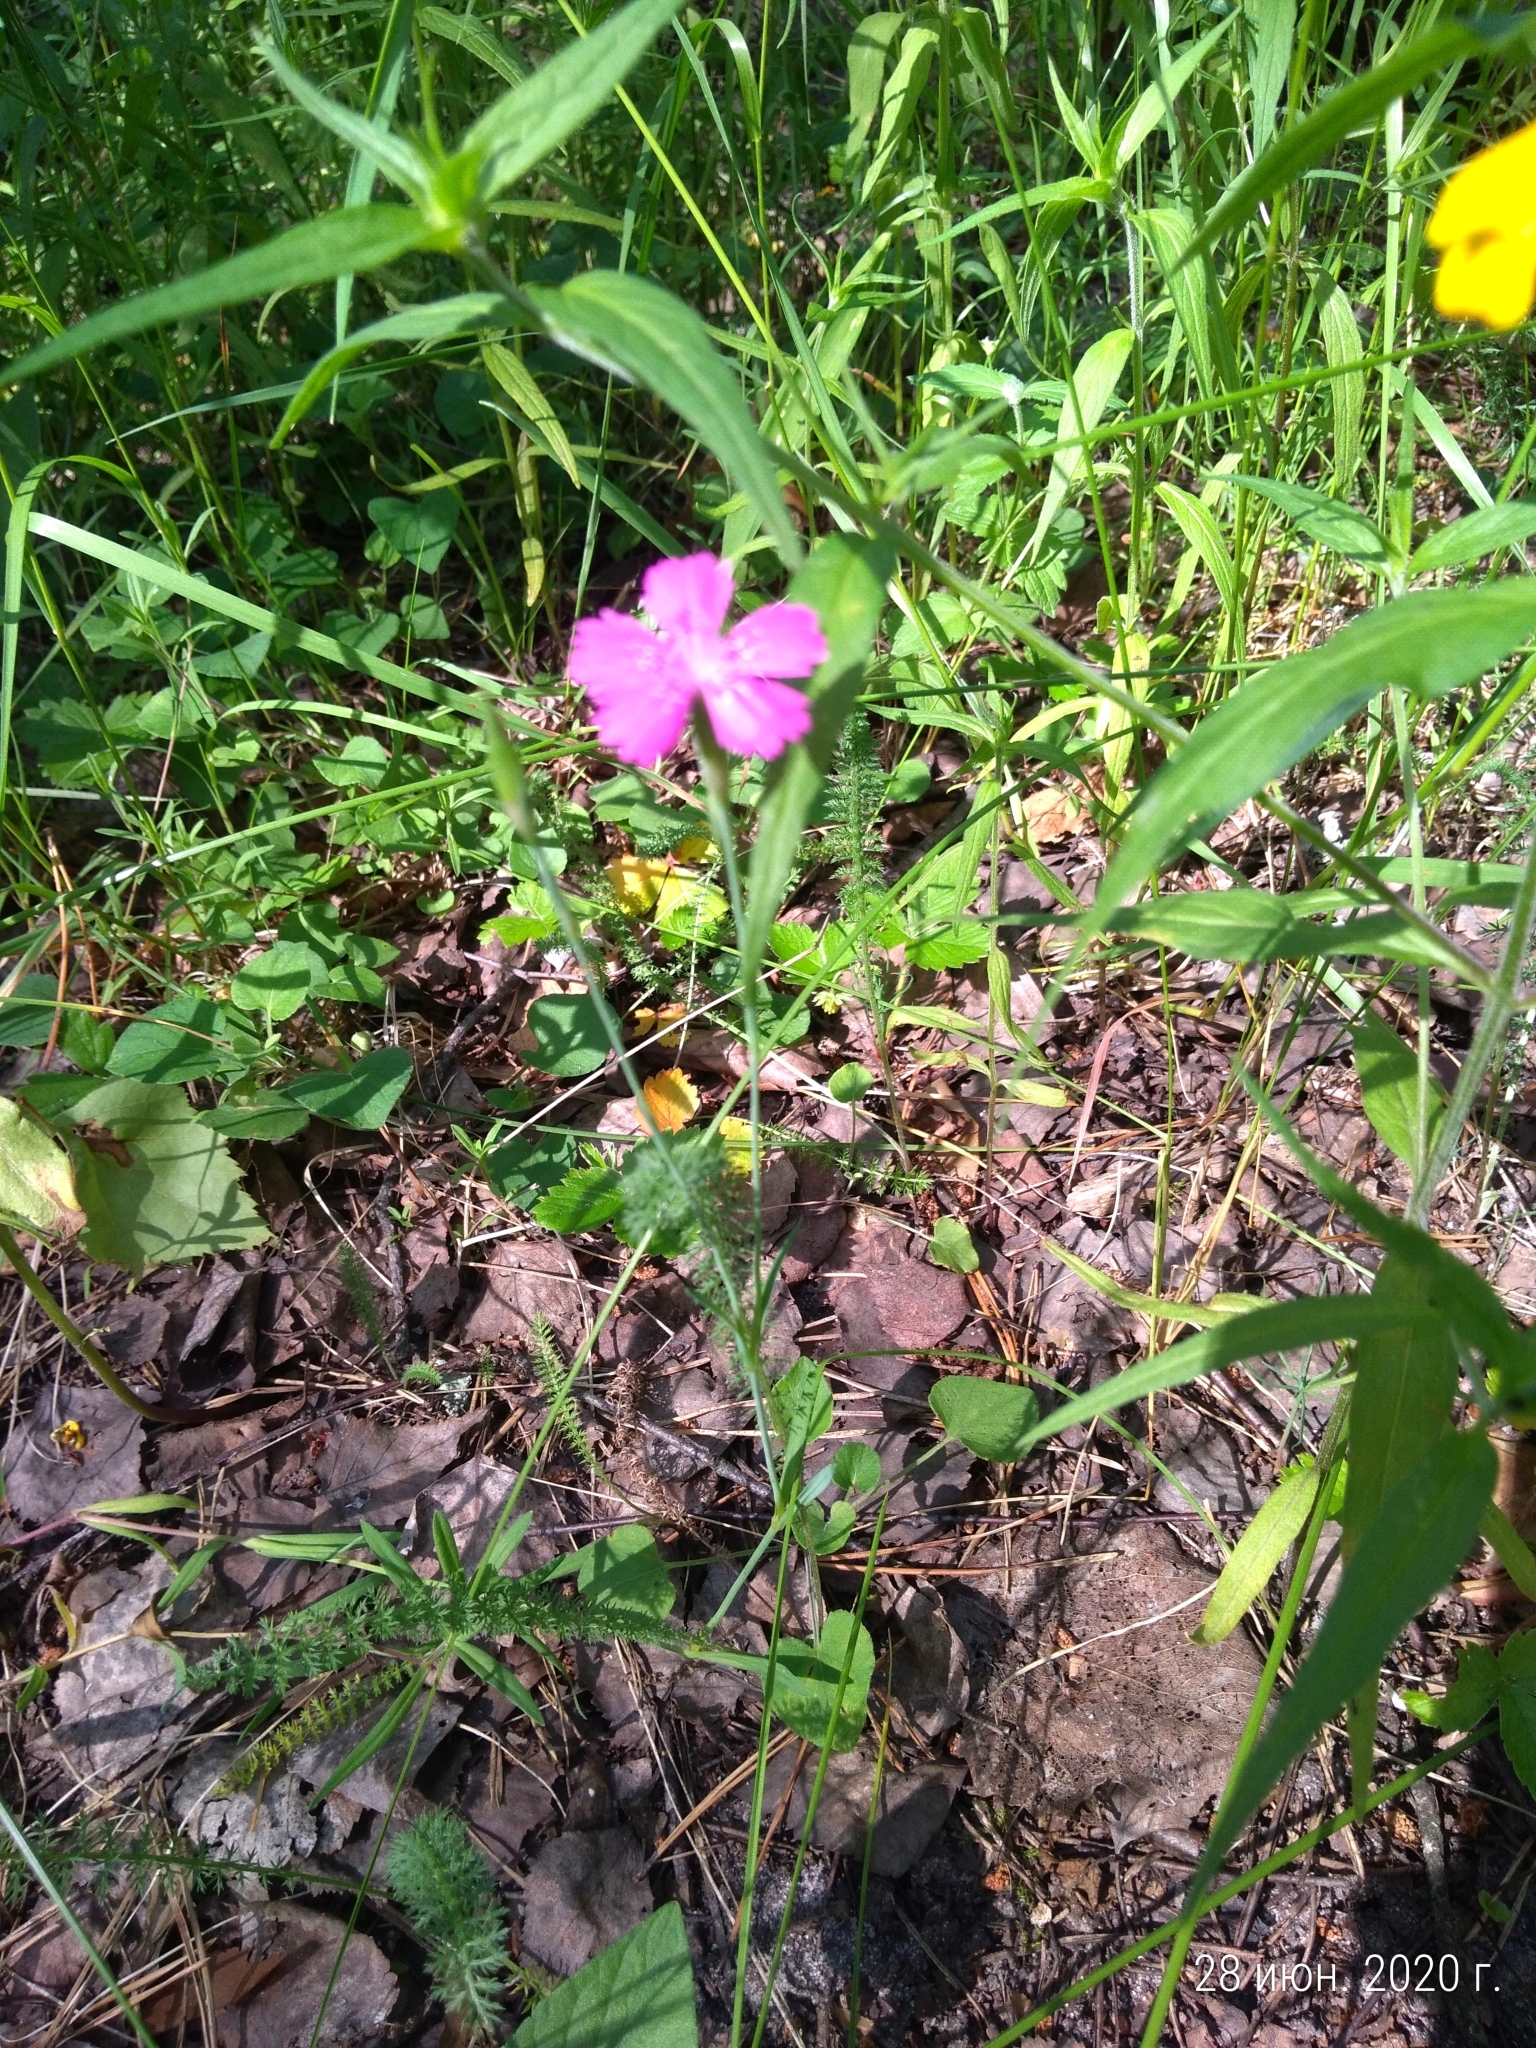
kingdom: Plantae
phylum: Tracheophyta
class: Magnoliopsida
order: Caryophyllales
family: Caryophyllaceae
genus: Dianthus
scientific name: Dianthus deltoides
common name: Maiden pink
